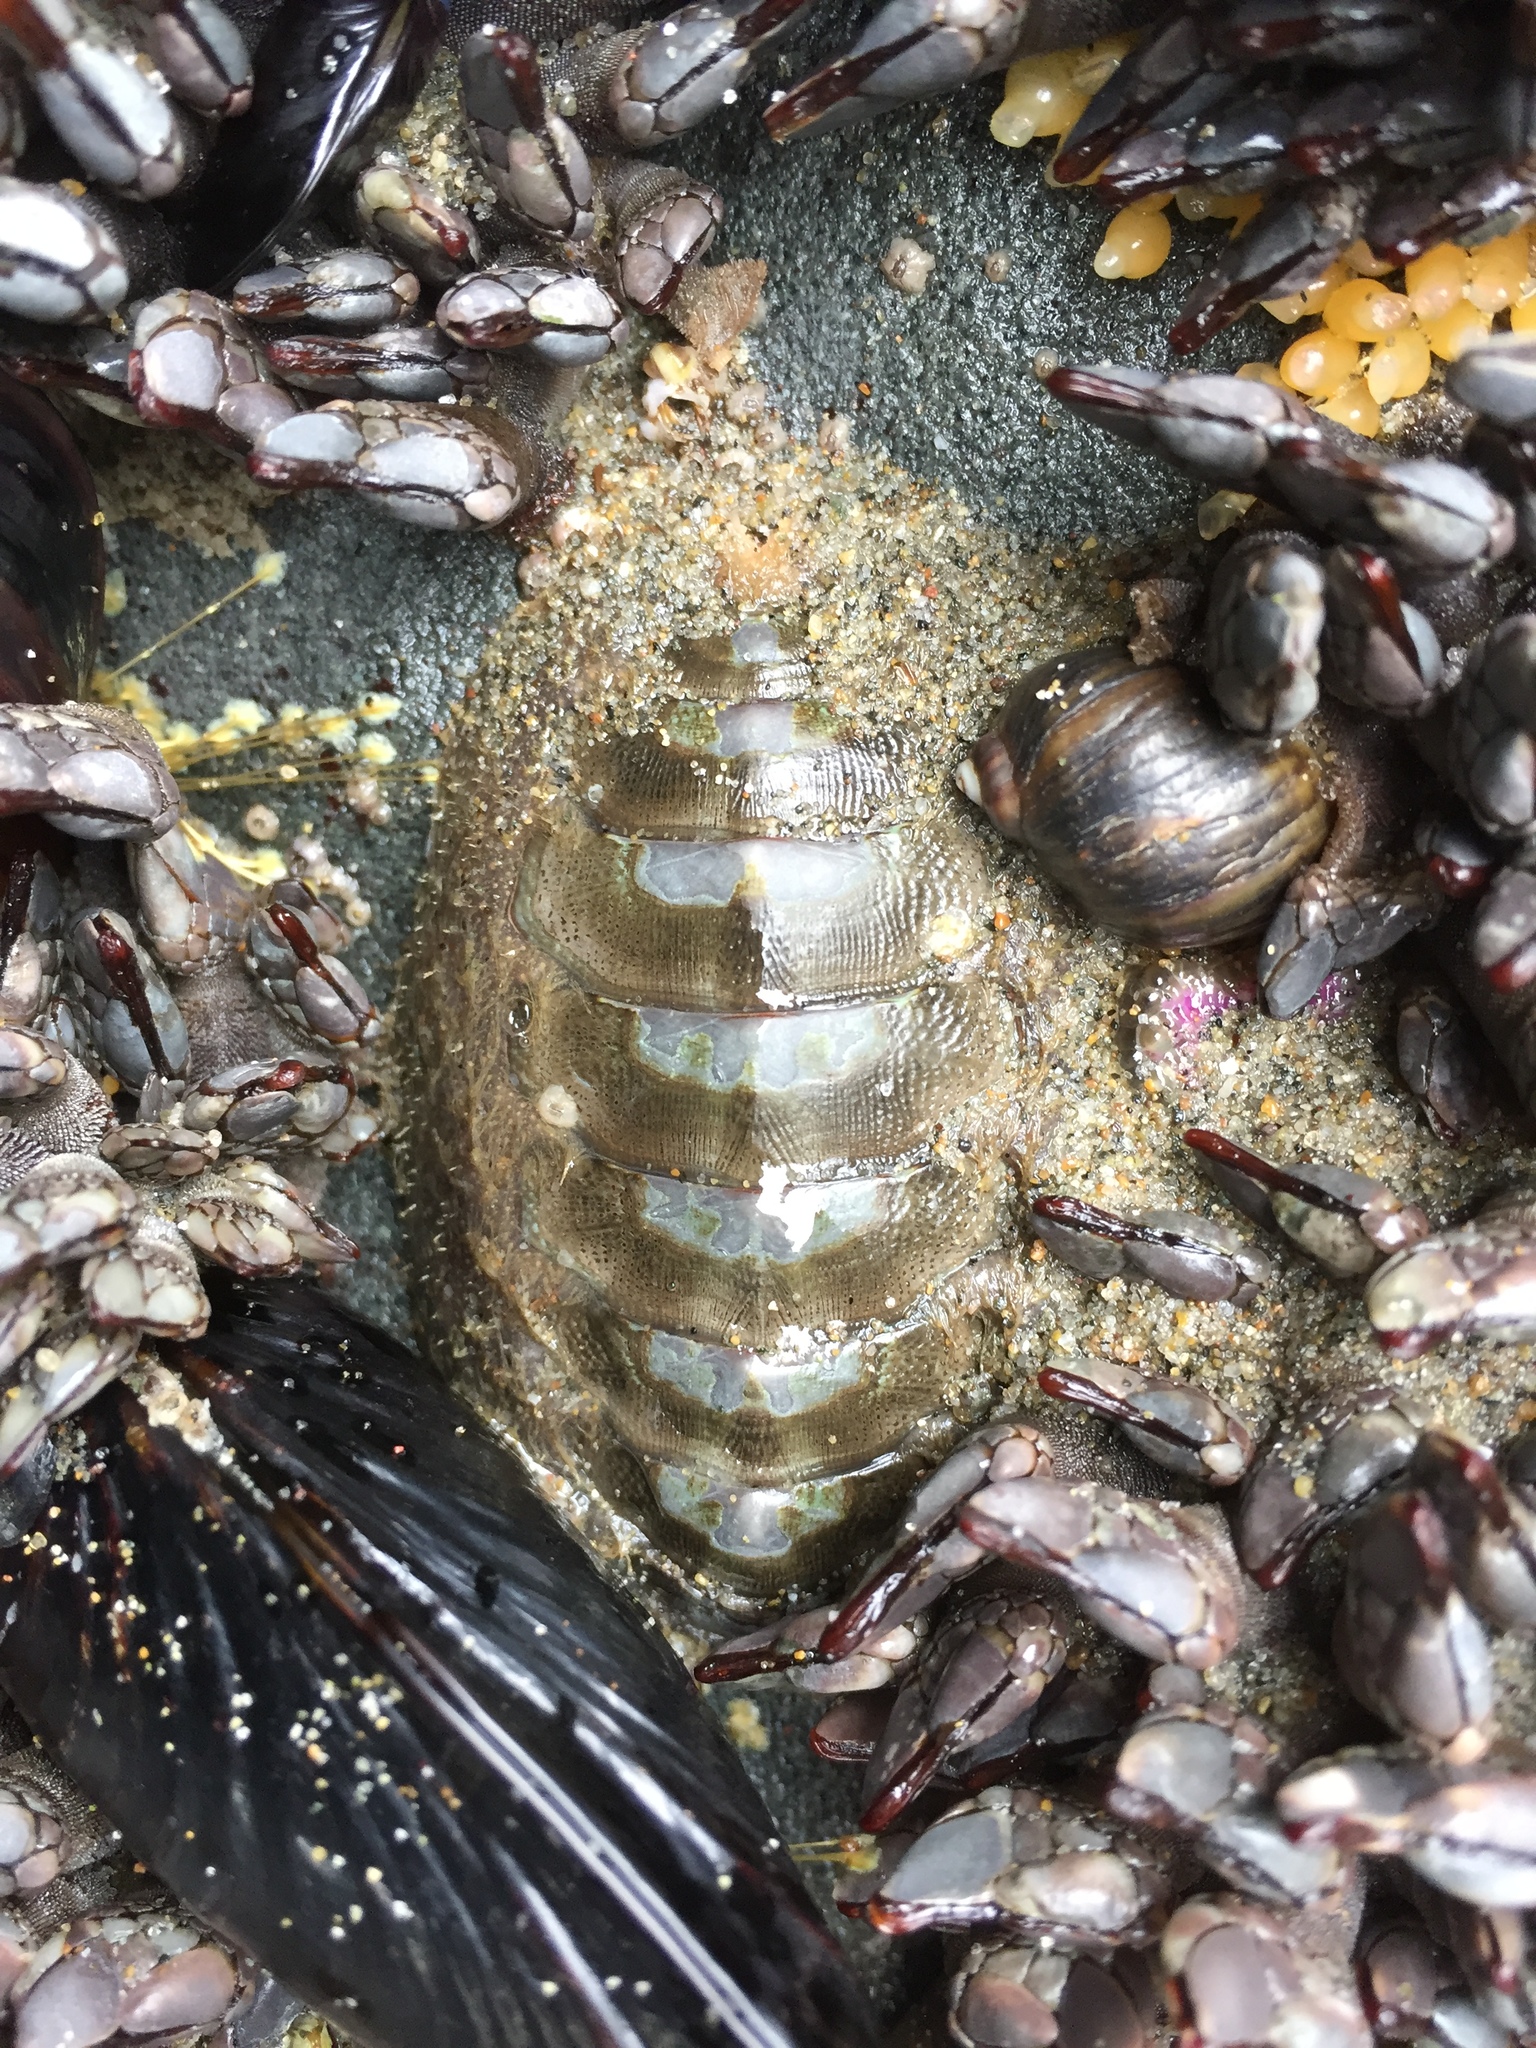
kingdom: Animalia
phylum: Mollusca
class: Polyplacophora
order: Chitonida
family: Mopaliidae
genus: Mopalia
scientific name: Mopalia hindsii
